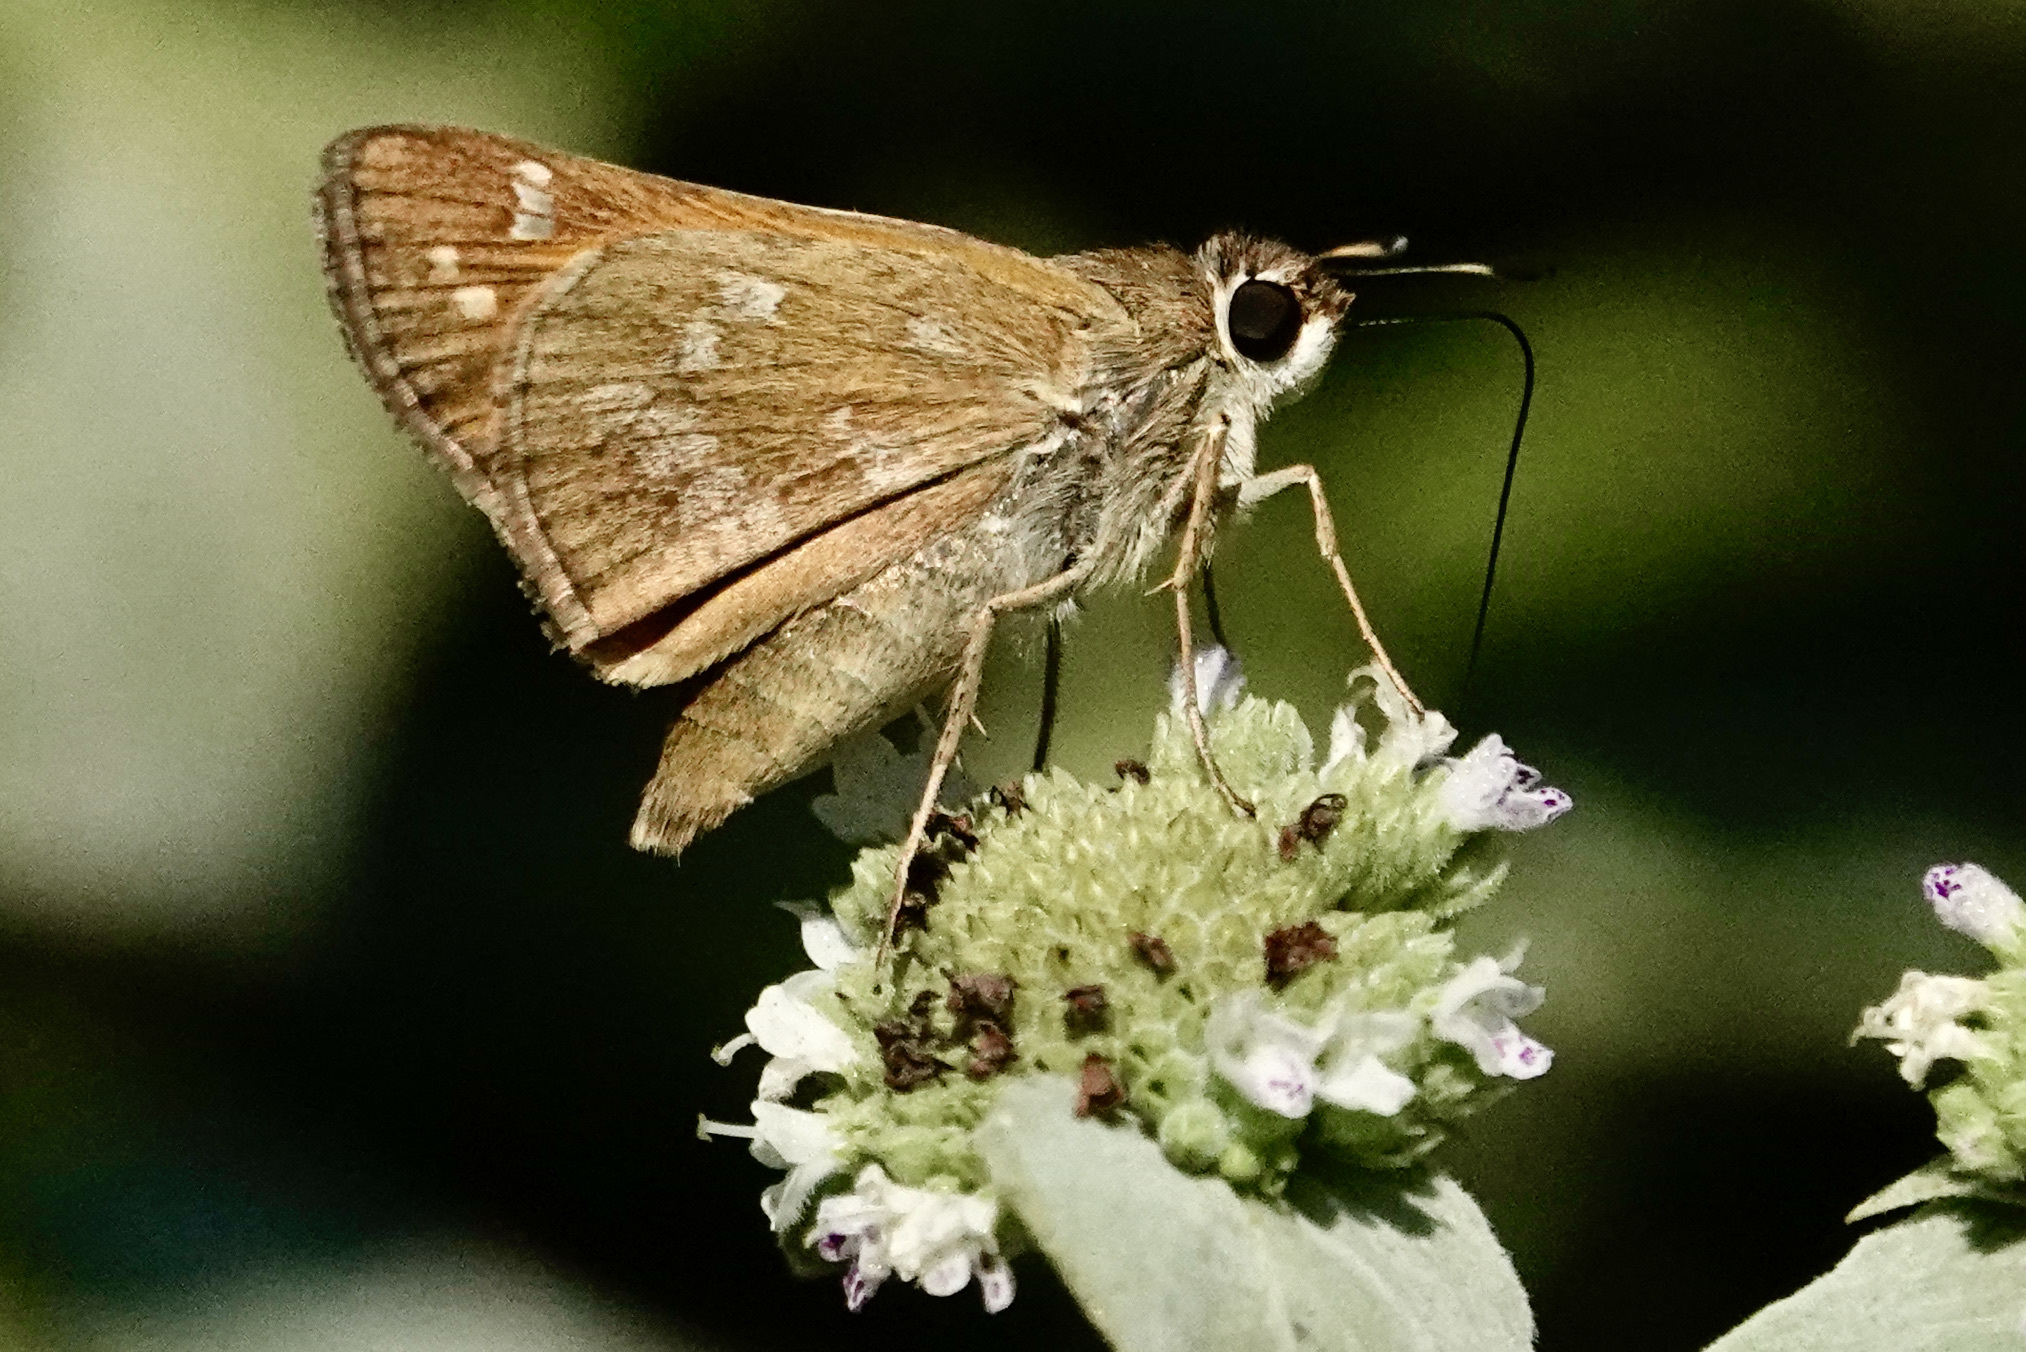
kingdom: Animalia
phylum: Arthropoda
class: Insecta
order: Lepidoptera
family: Hesperiidae
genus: Atalopedes
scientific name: Atalopedes
